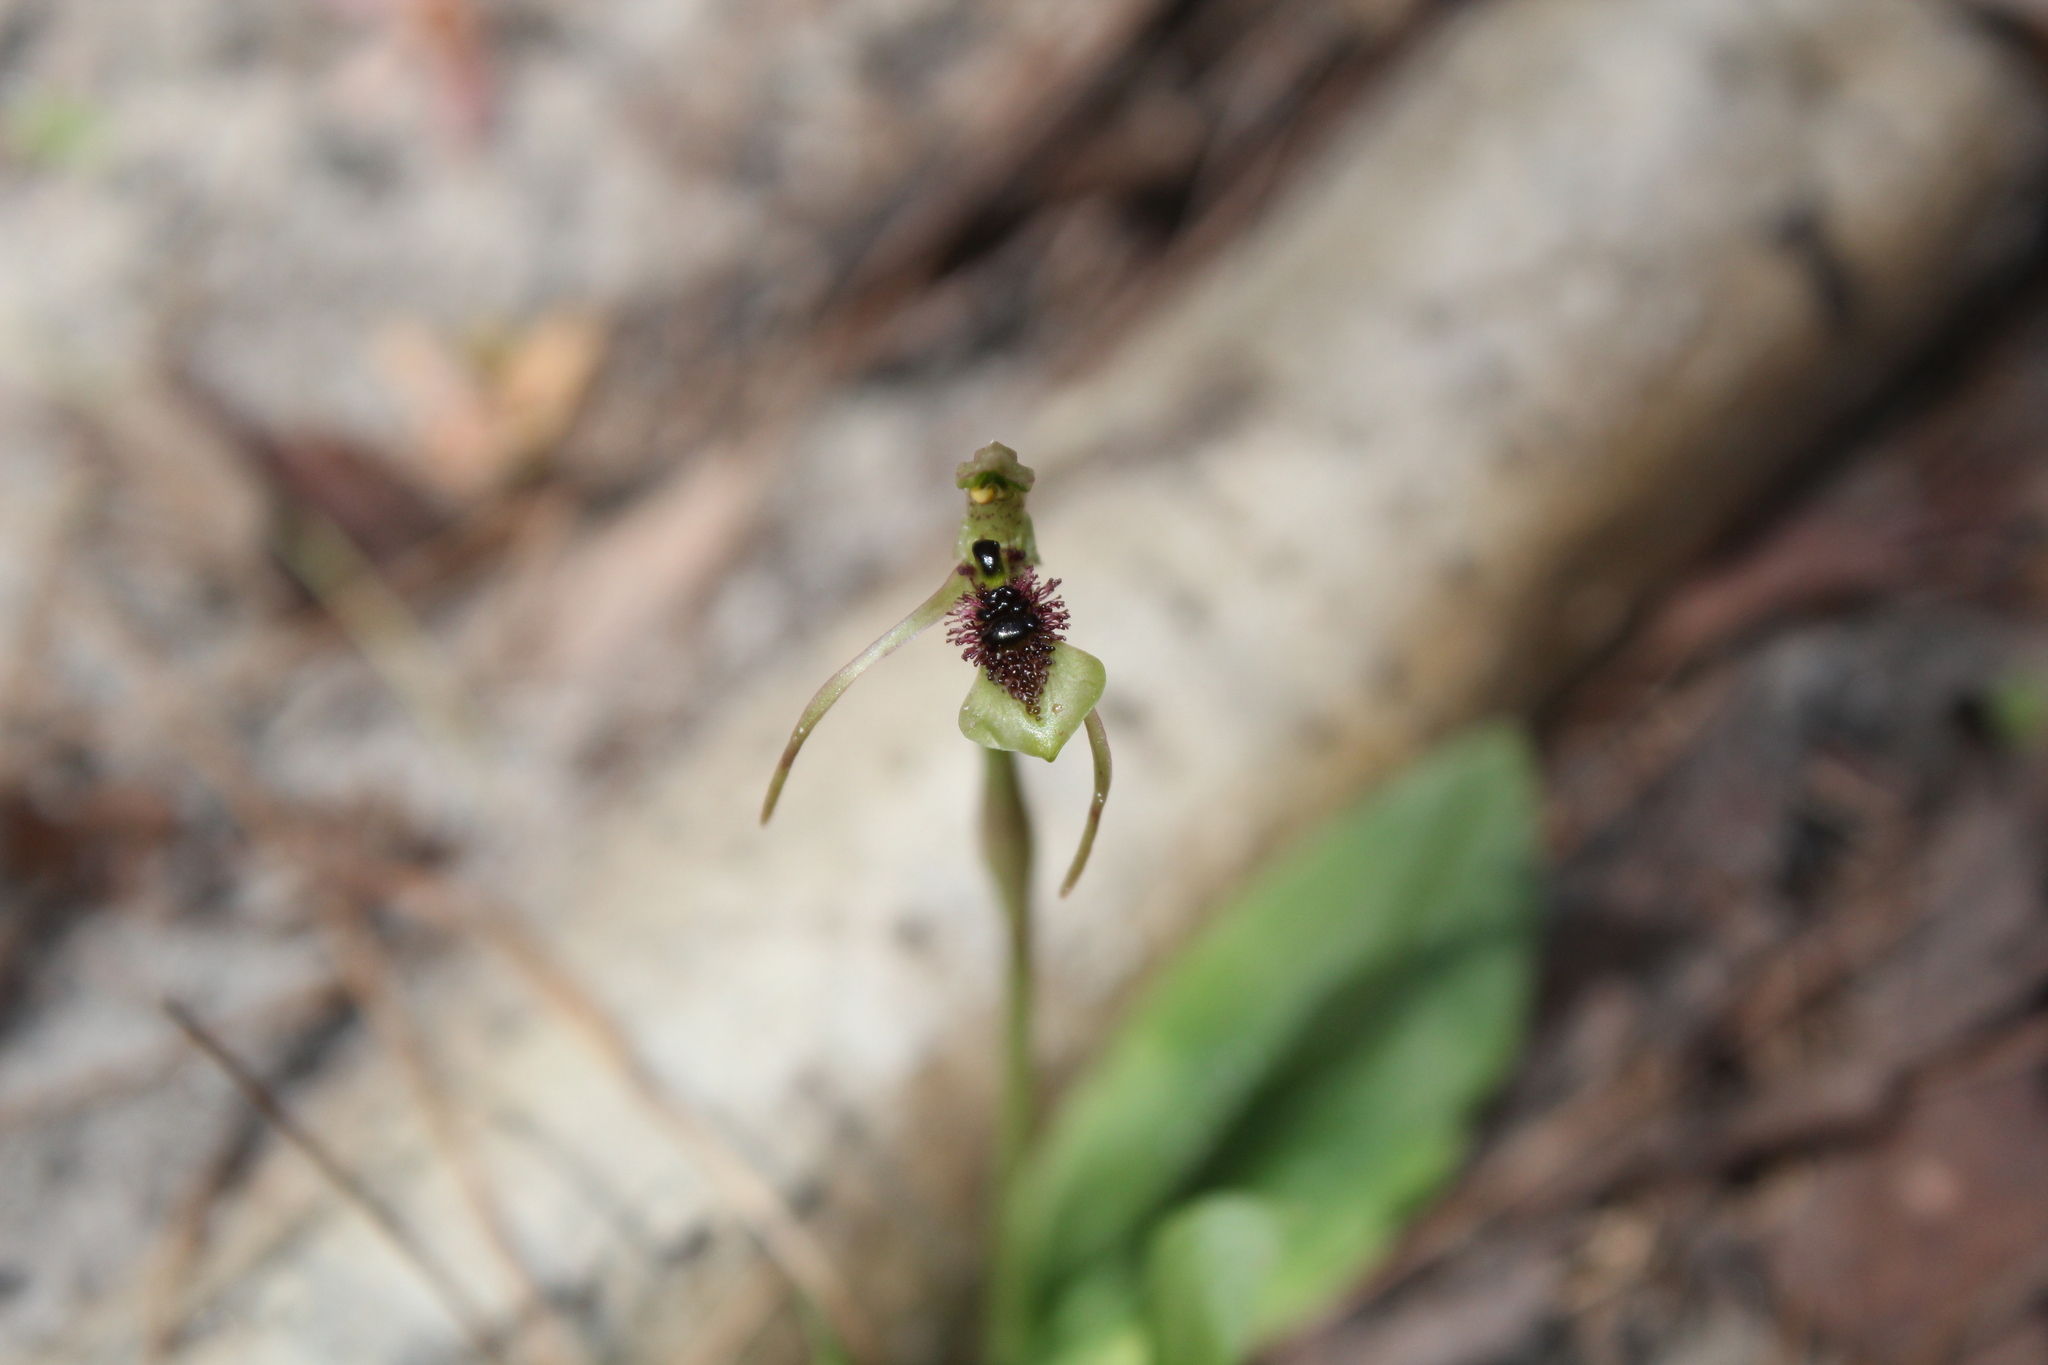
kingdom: Plantae
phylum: Tracheophyta
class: Liliopsida
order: Asparagales
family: Orchidaceae
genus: Chiloglottis
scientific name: Chiloglottis seminuda
